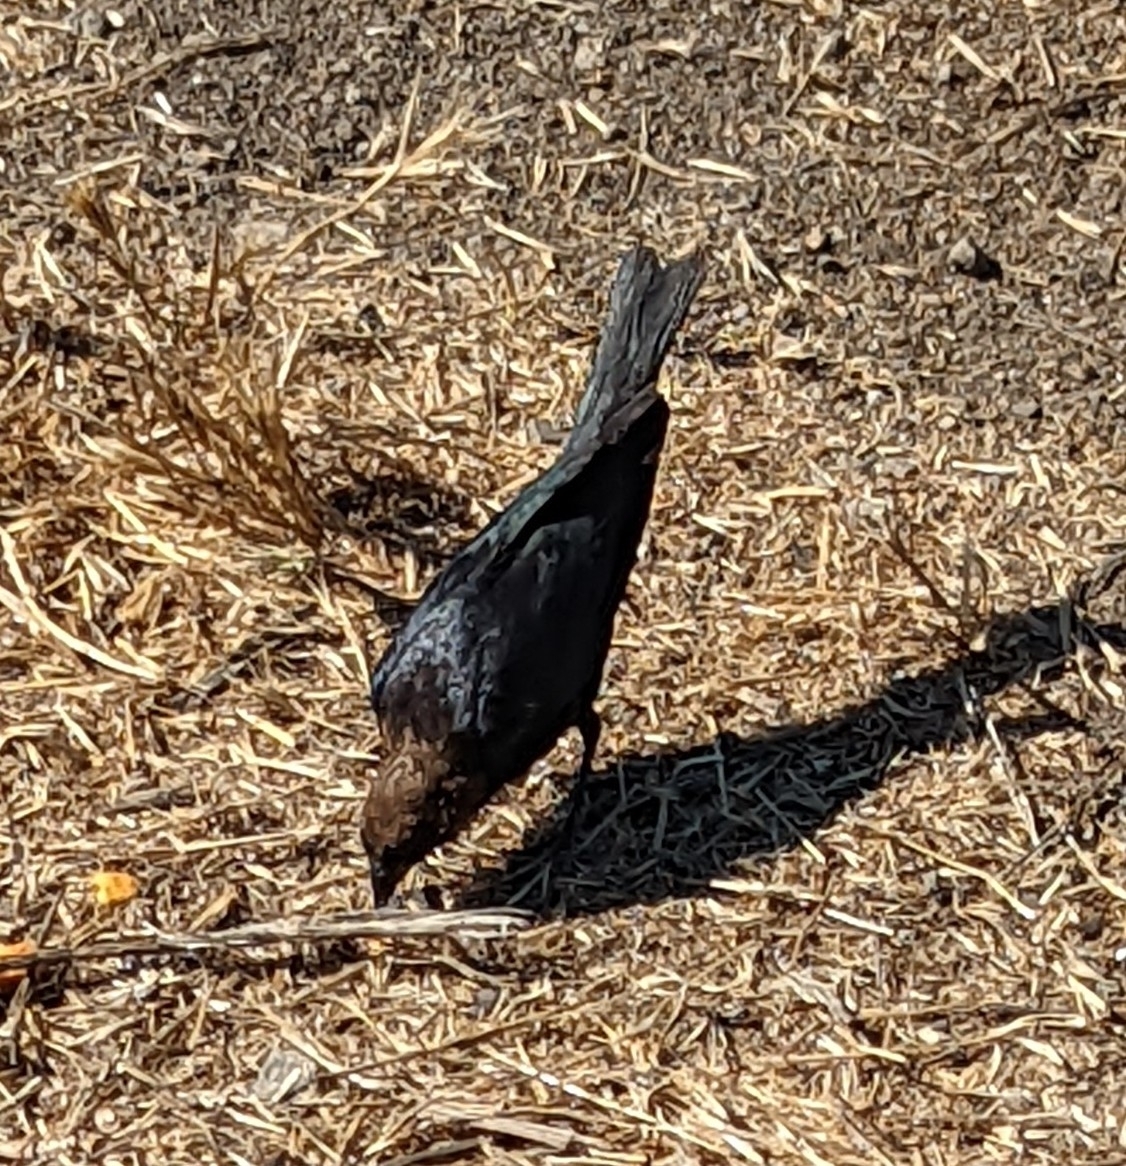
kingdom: Animalia
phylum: Chordata
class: Aves
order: Passeriformes
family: Icteridae
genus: Molothrus
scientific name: Molothrus ater
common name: Brown-headed cowbird
